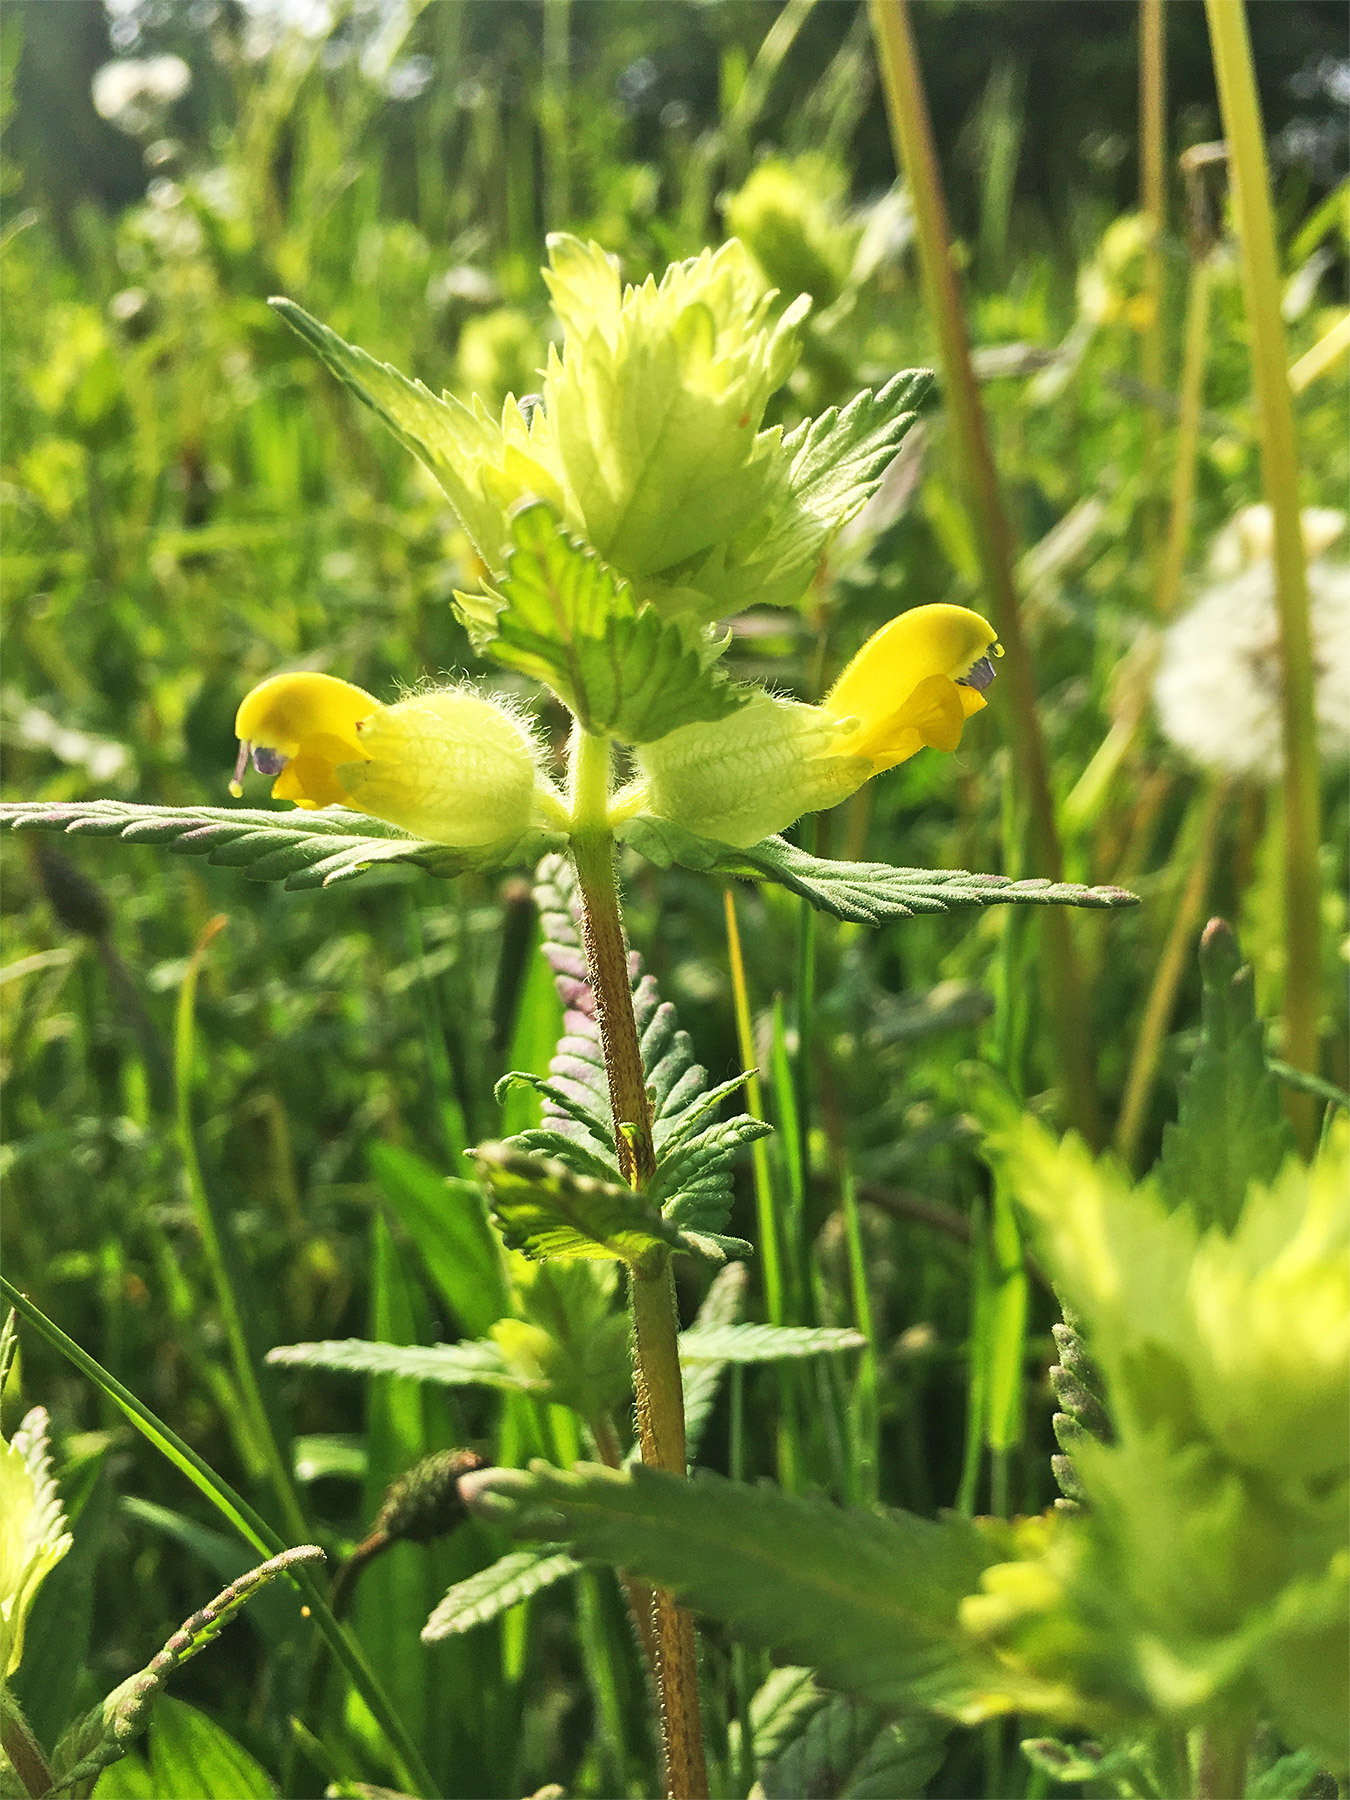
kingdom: Plantae
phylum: Tracheophyta
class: Magnoliopsida
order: Lamiales
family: Orobanchaceae
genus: Rhinanthus
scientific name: Rhinanthus alectorolophus
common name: Greater yellow-rattle
